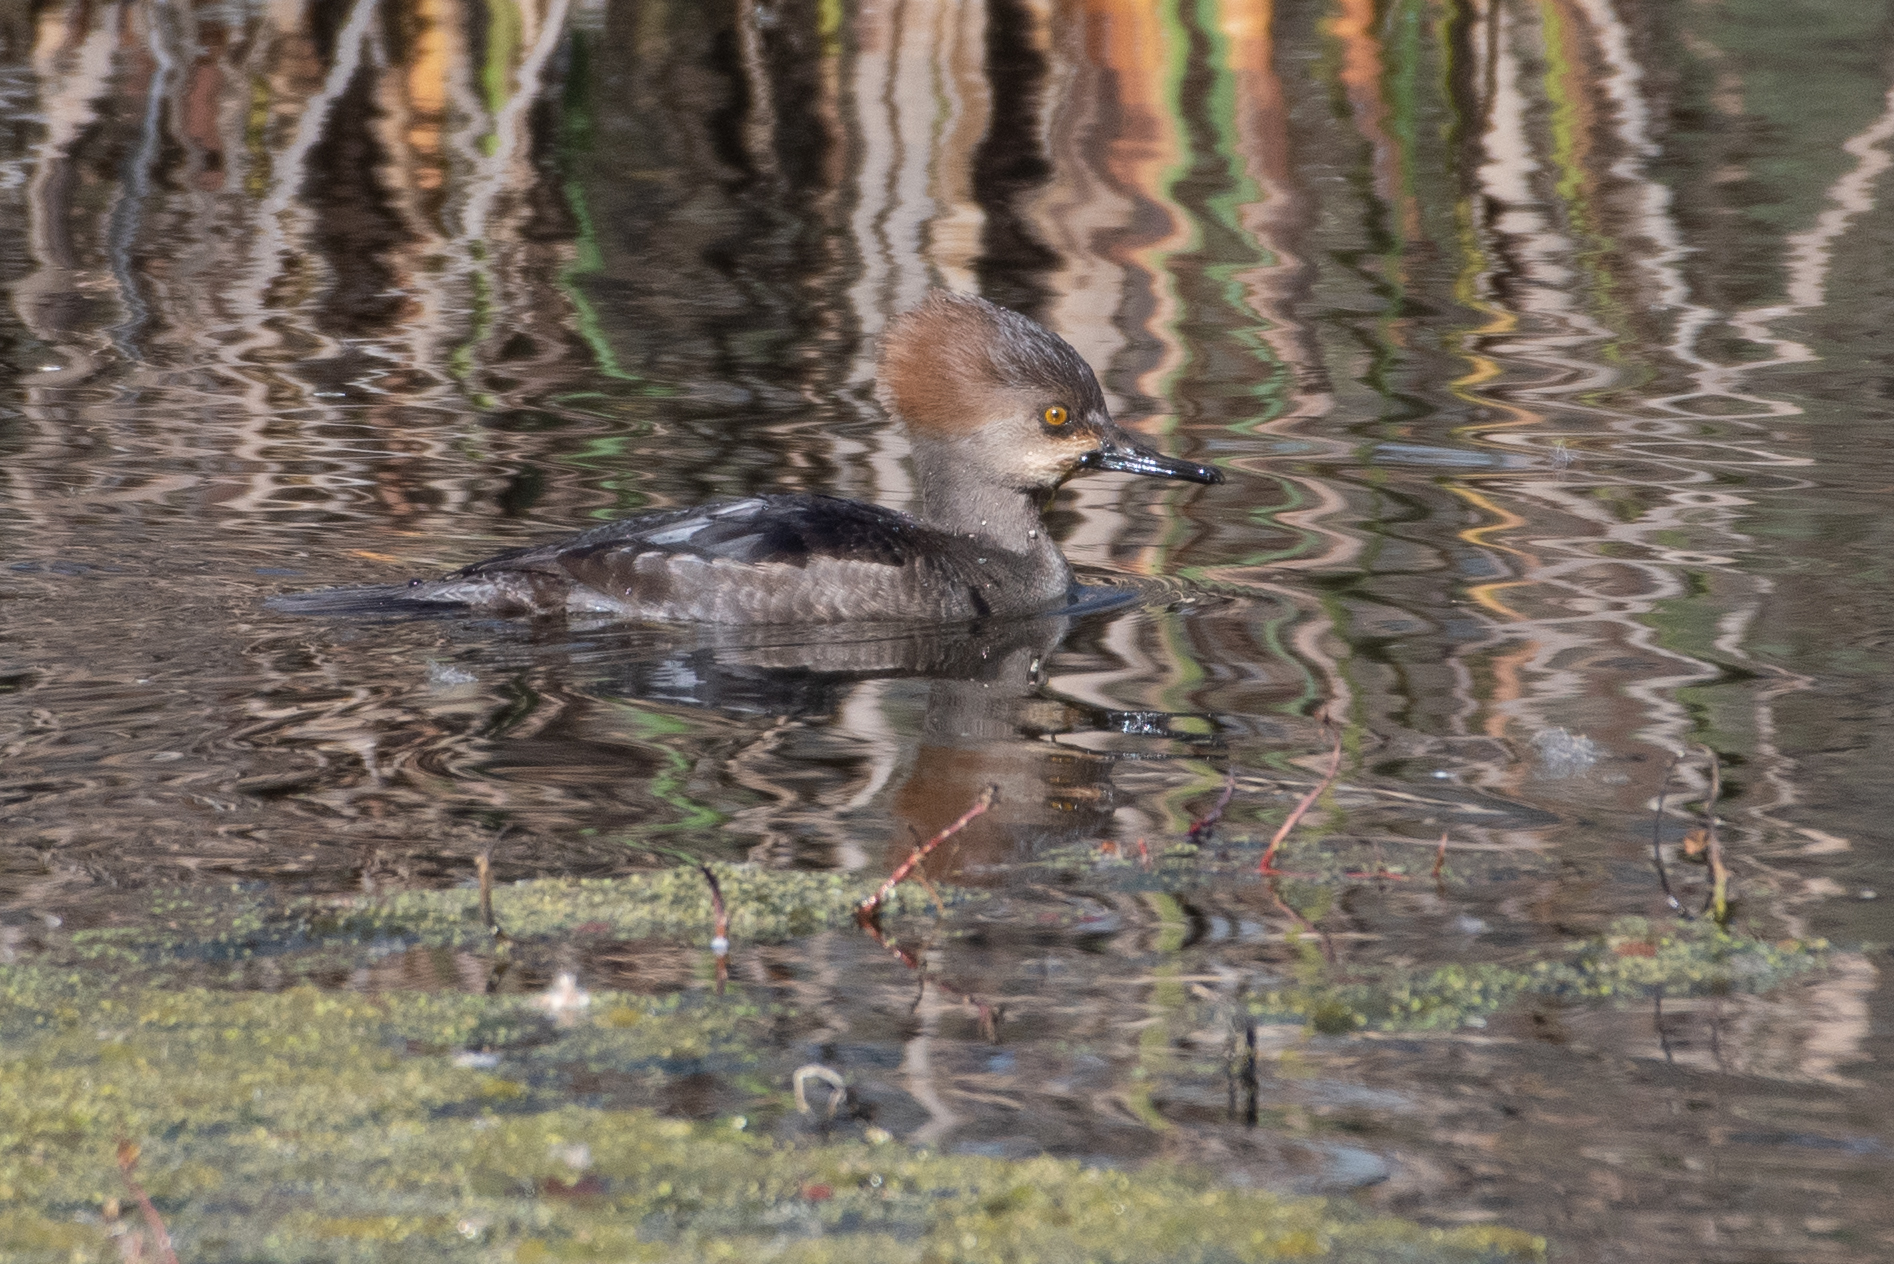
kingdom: Animalia
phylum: Chordata
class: Aves
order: Anseriformes
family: Anatidae
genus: Lophodytes
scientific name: Lophodytes cucullatus
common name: Hooded merganser
